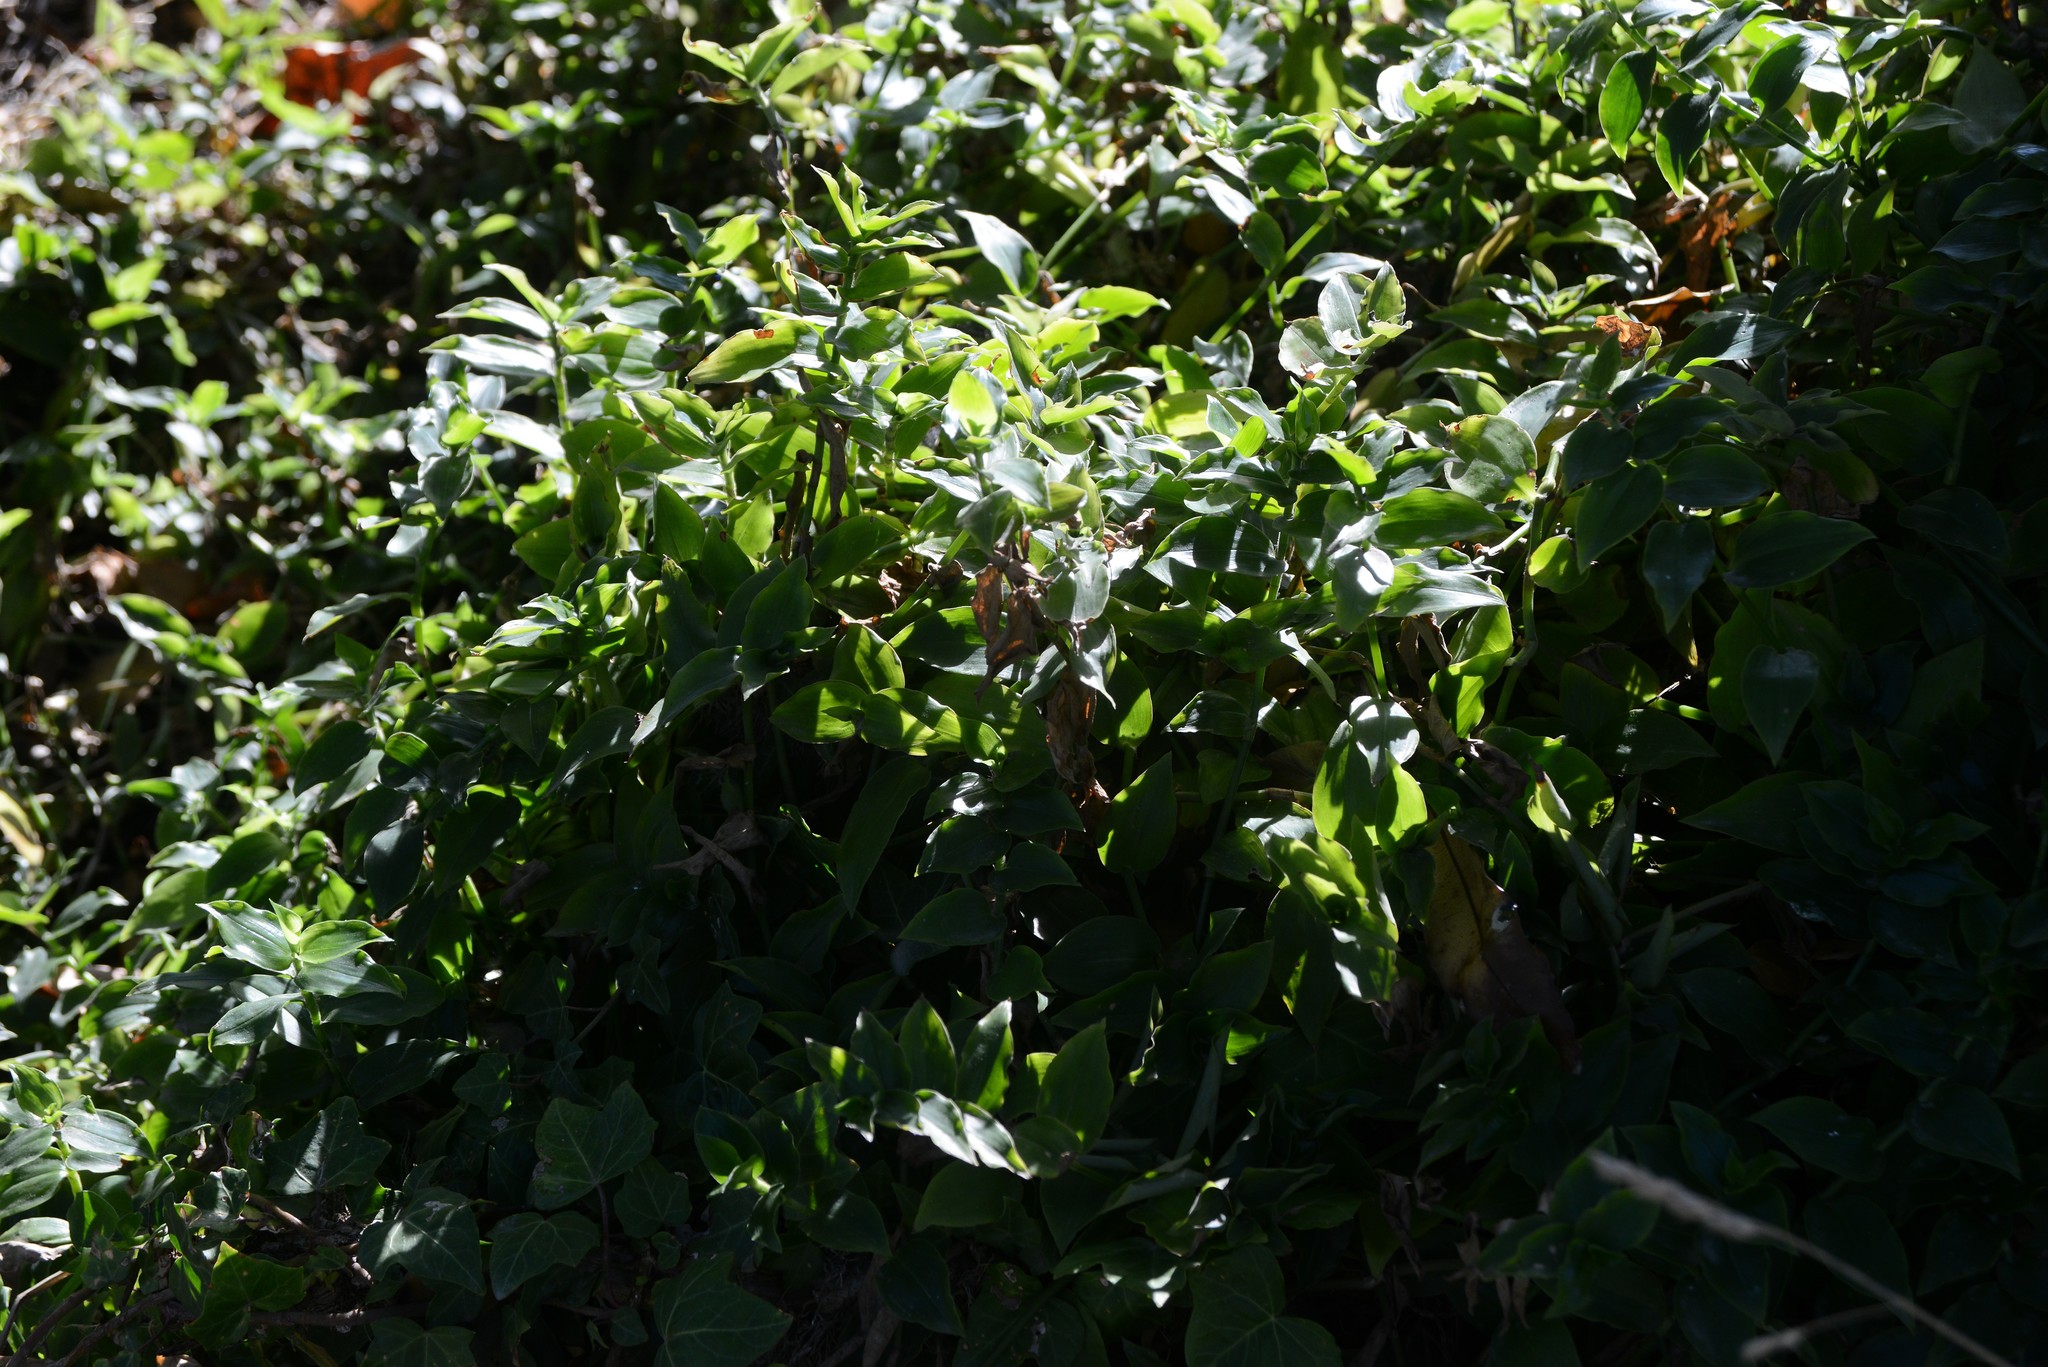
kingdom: Plantae
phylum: Tracheophyta
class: Liliopsida
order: Commelinales
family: Commelinaceae
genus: Tradescantia
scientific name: Tradescantia fluminensis
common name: Wandering-jew
